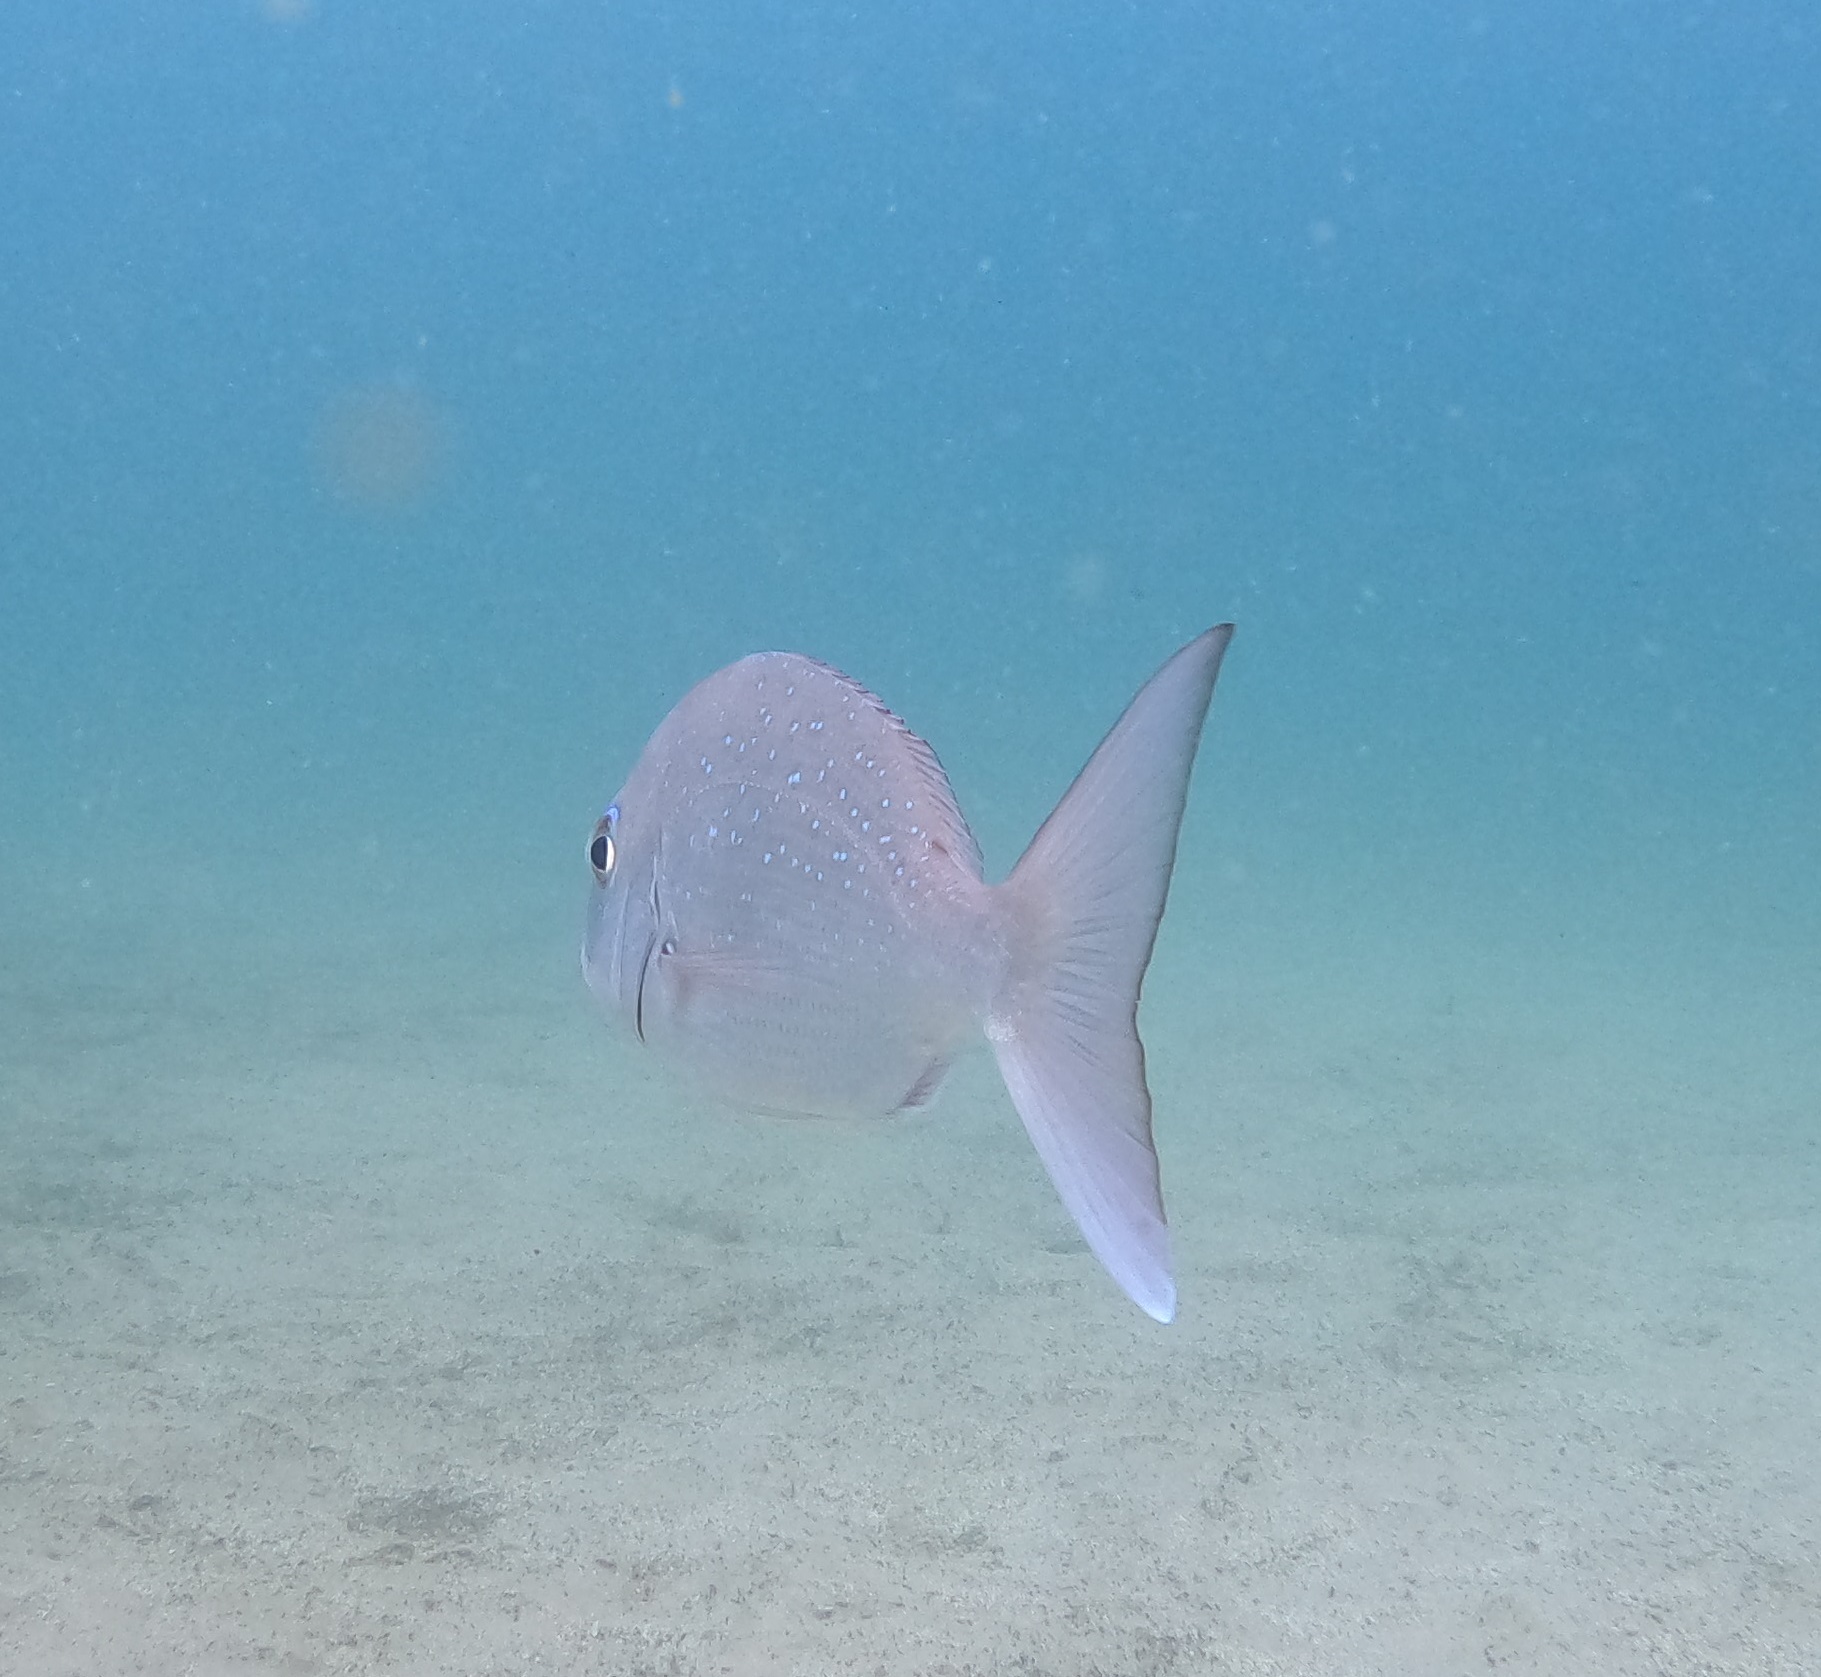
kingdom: Animalia
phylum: Chordata
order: Perciformes
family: Sparidae
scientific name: Sparidae
